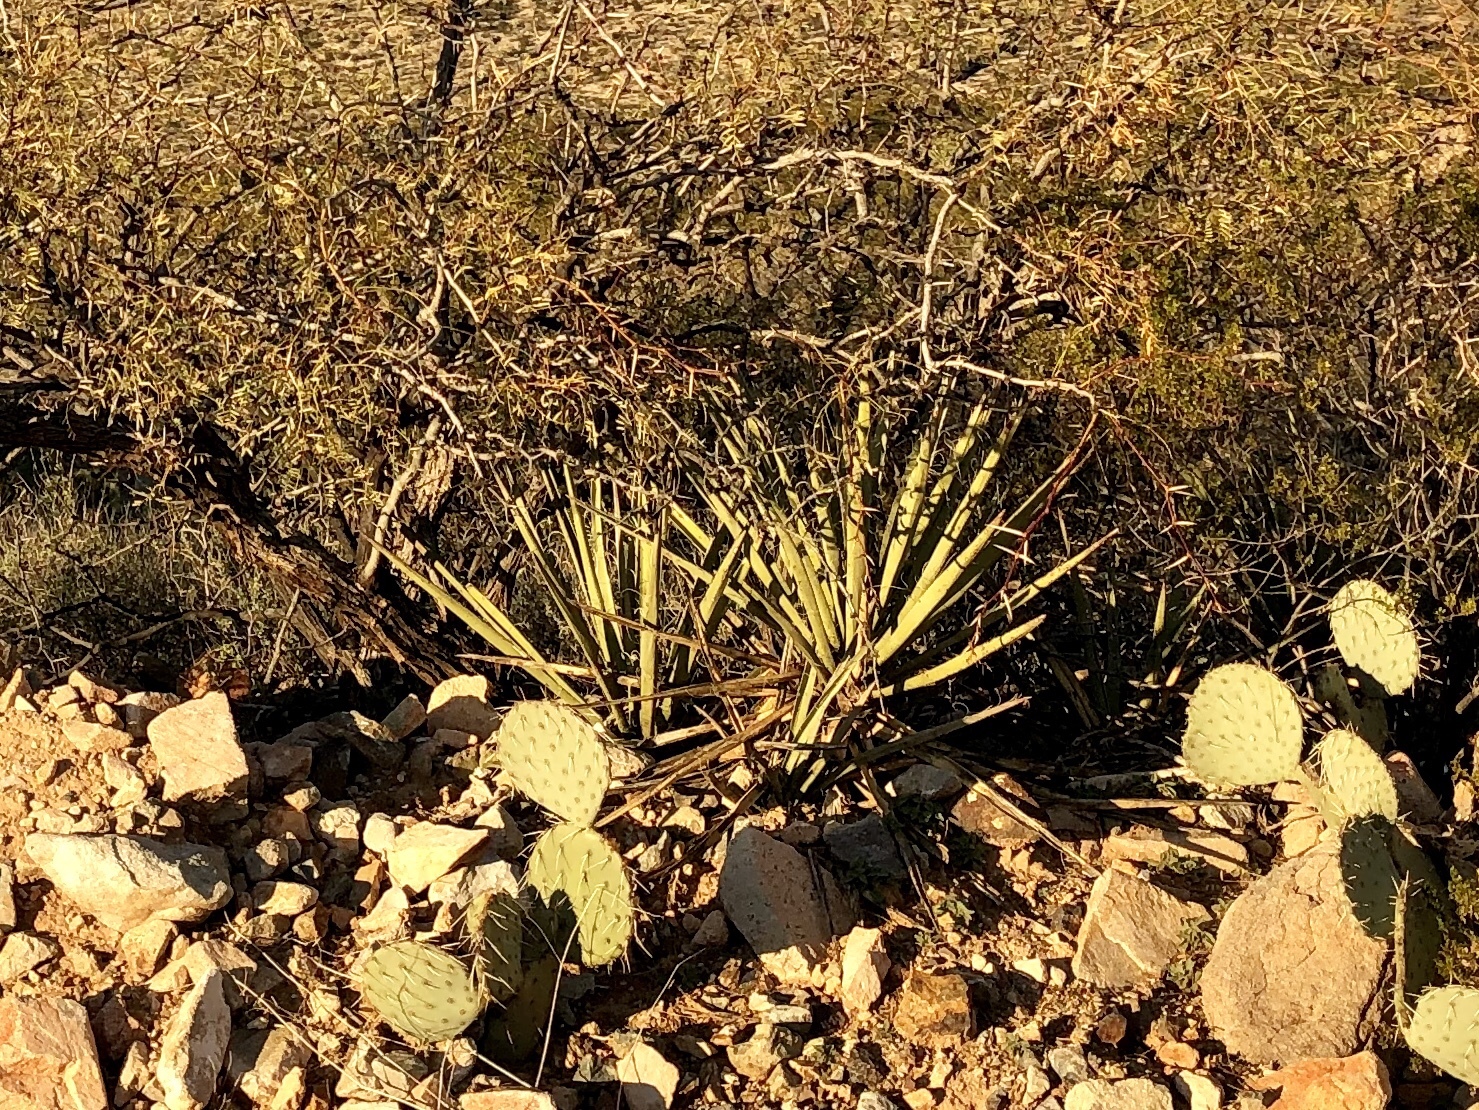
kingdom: Plantae
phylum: Tracheophyta
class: Liliopsida
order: Asparagales
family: Asparagaceae
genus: Yucca
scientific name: Yucca baccata
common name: Banana yucca
